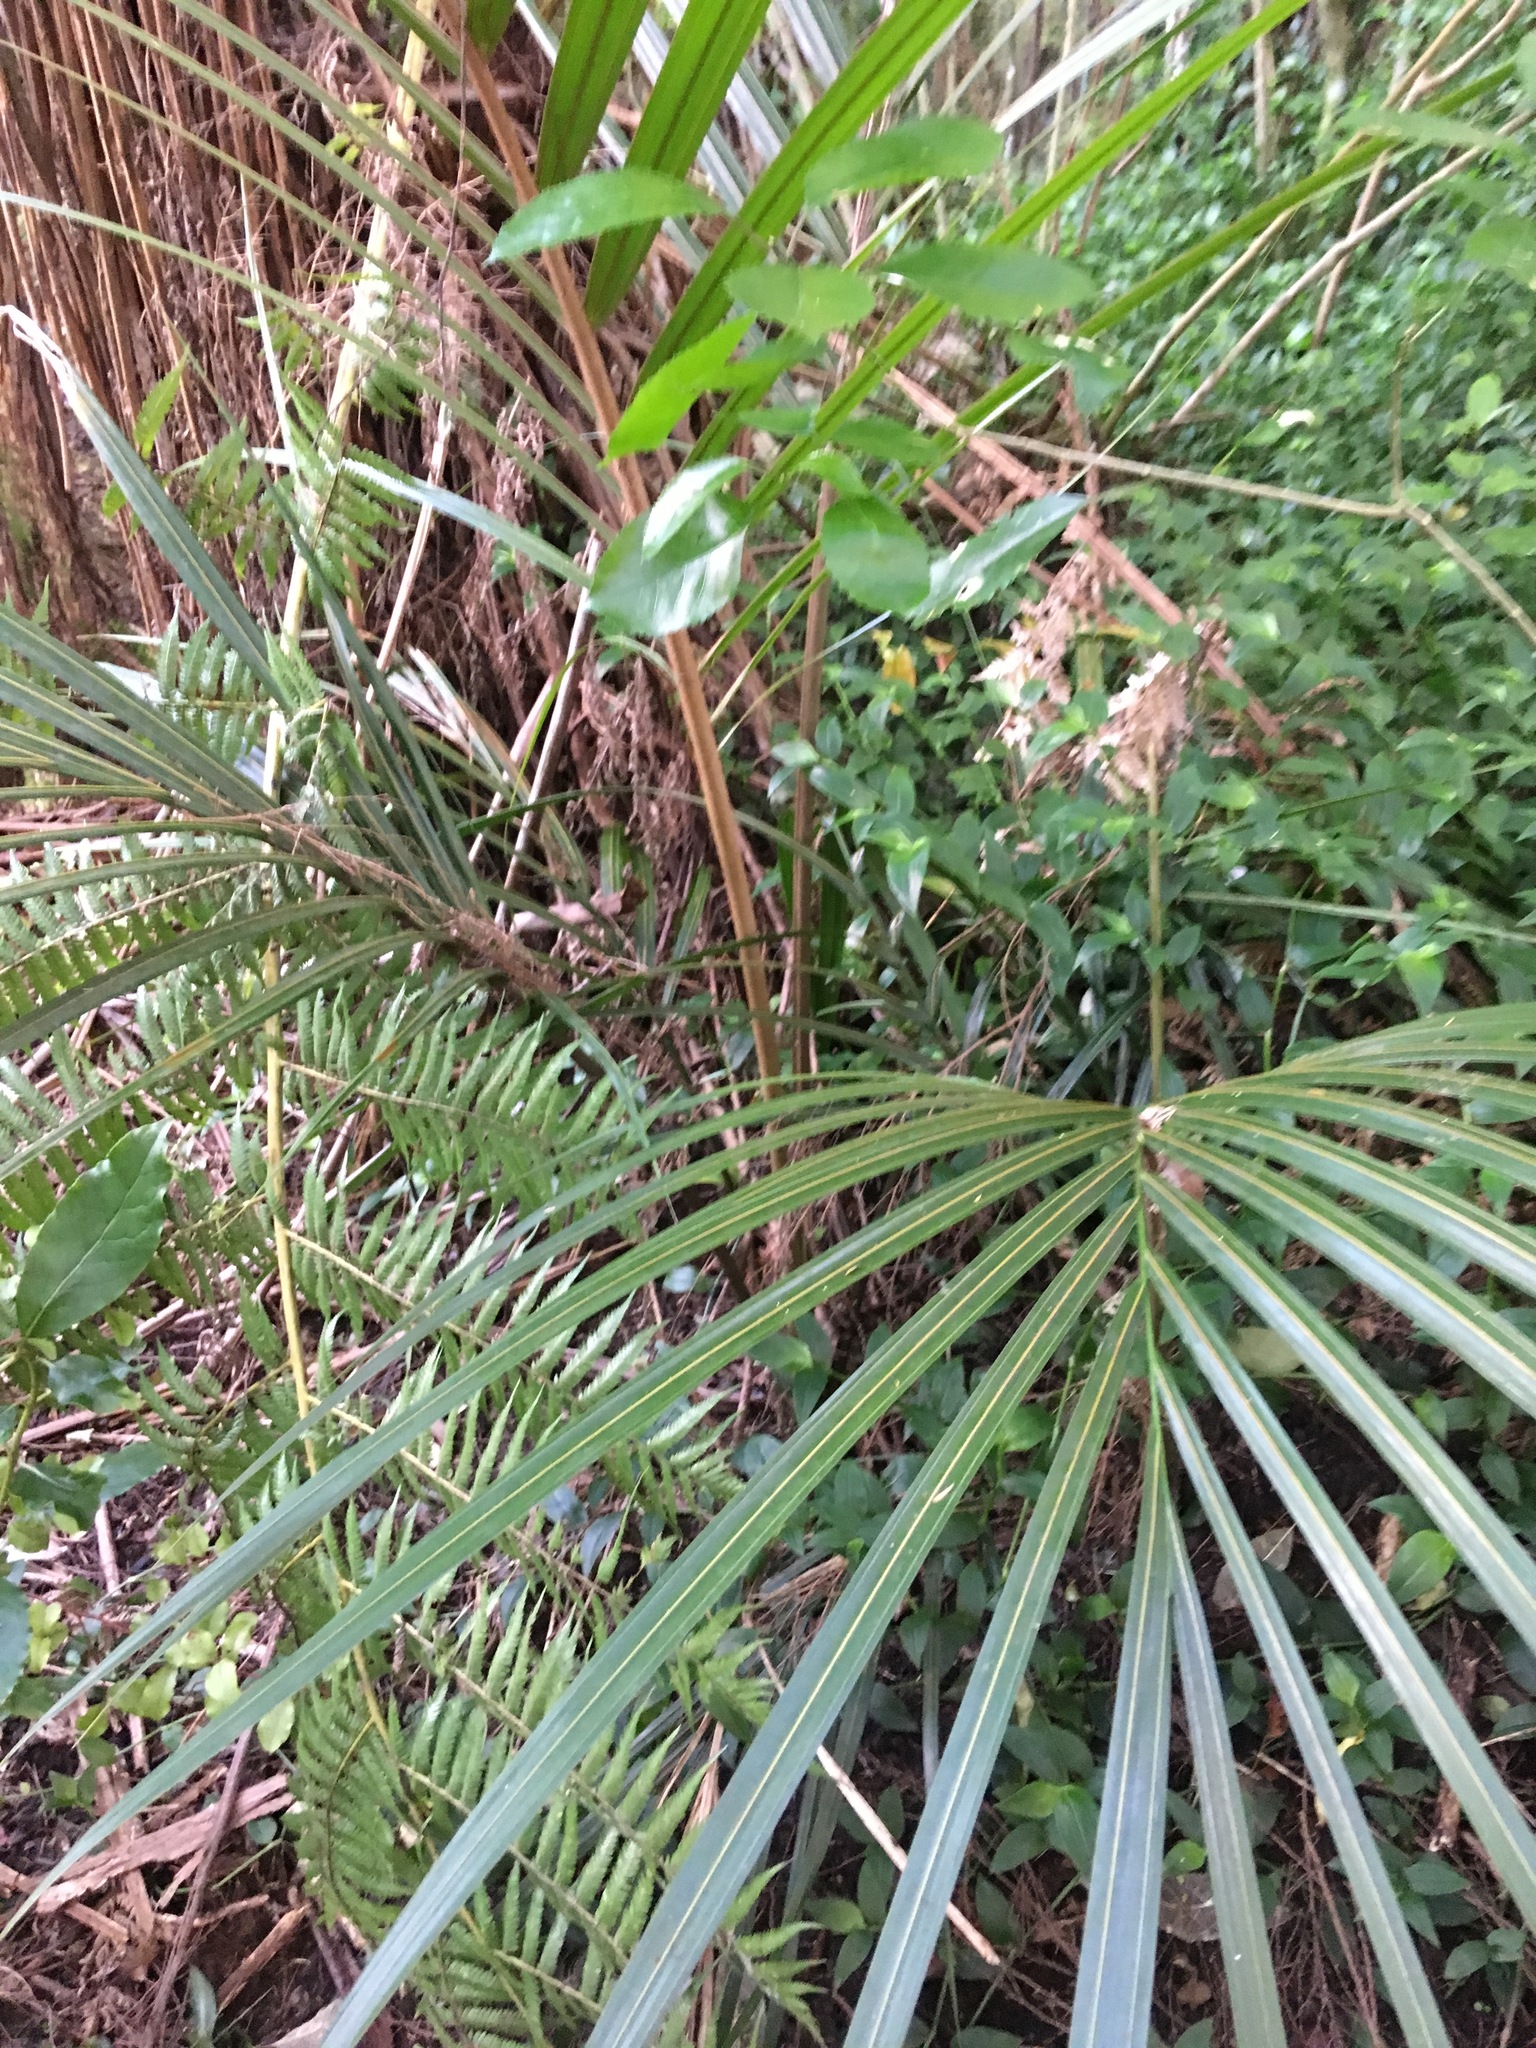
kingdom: Plantae
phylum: Tracheophyta
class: Liliopsida
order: Arecales
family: Arecaceae
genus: Rhopalostylis
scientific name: Rhopalostylis sapida
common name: Feather-duster palm
